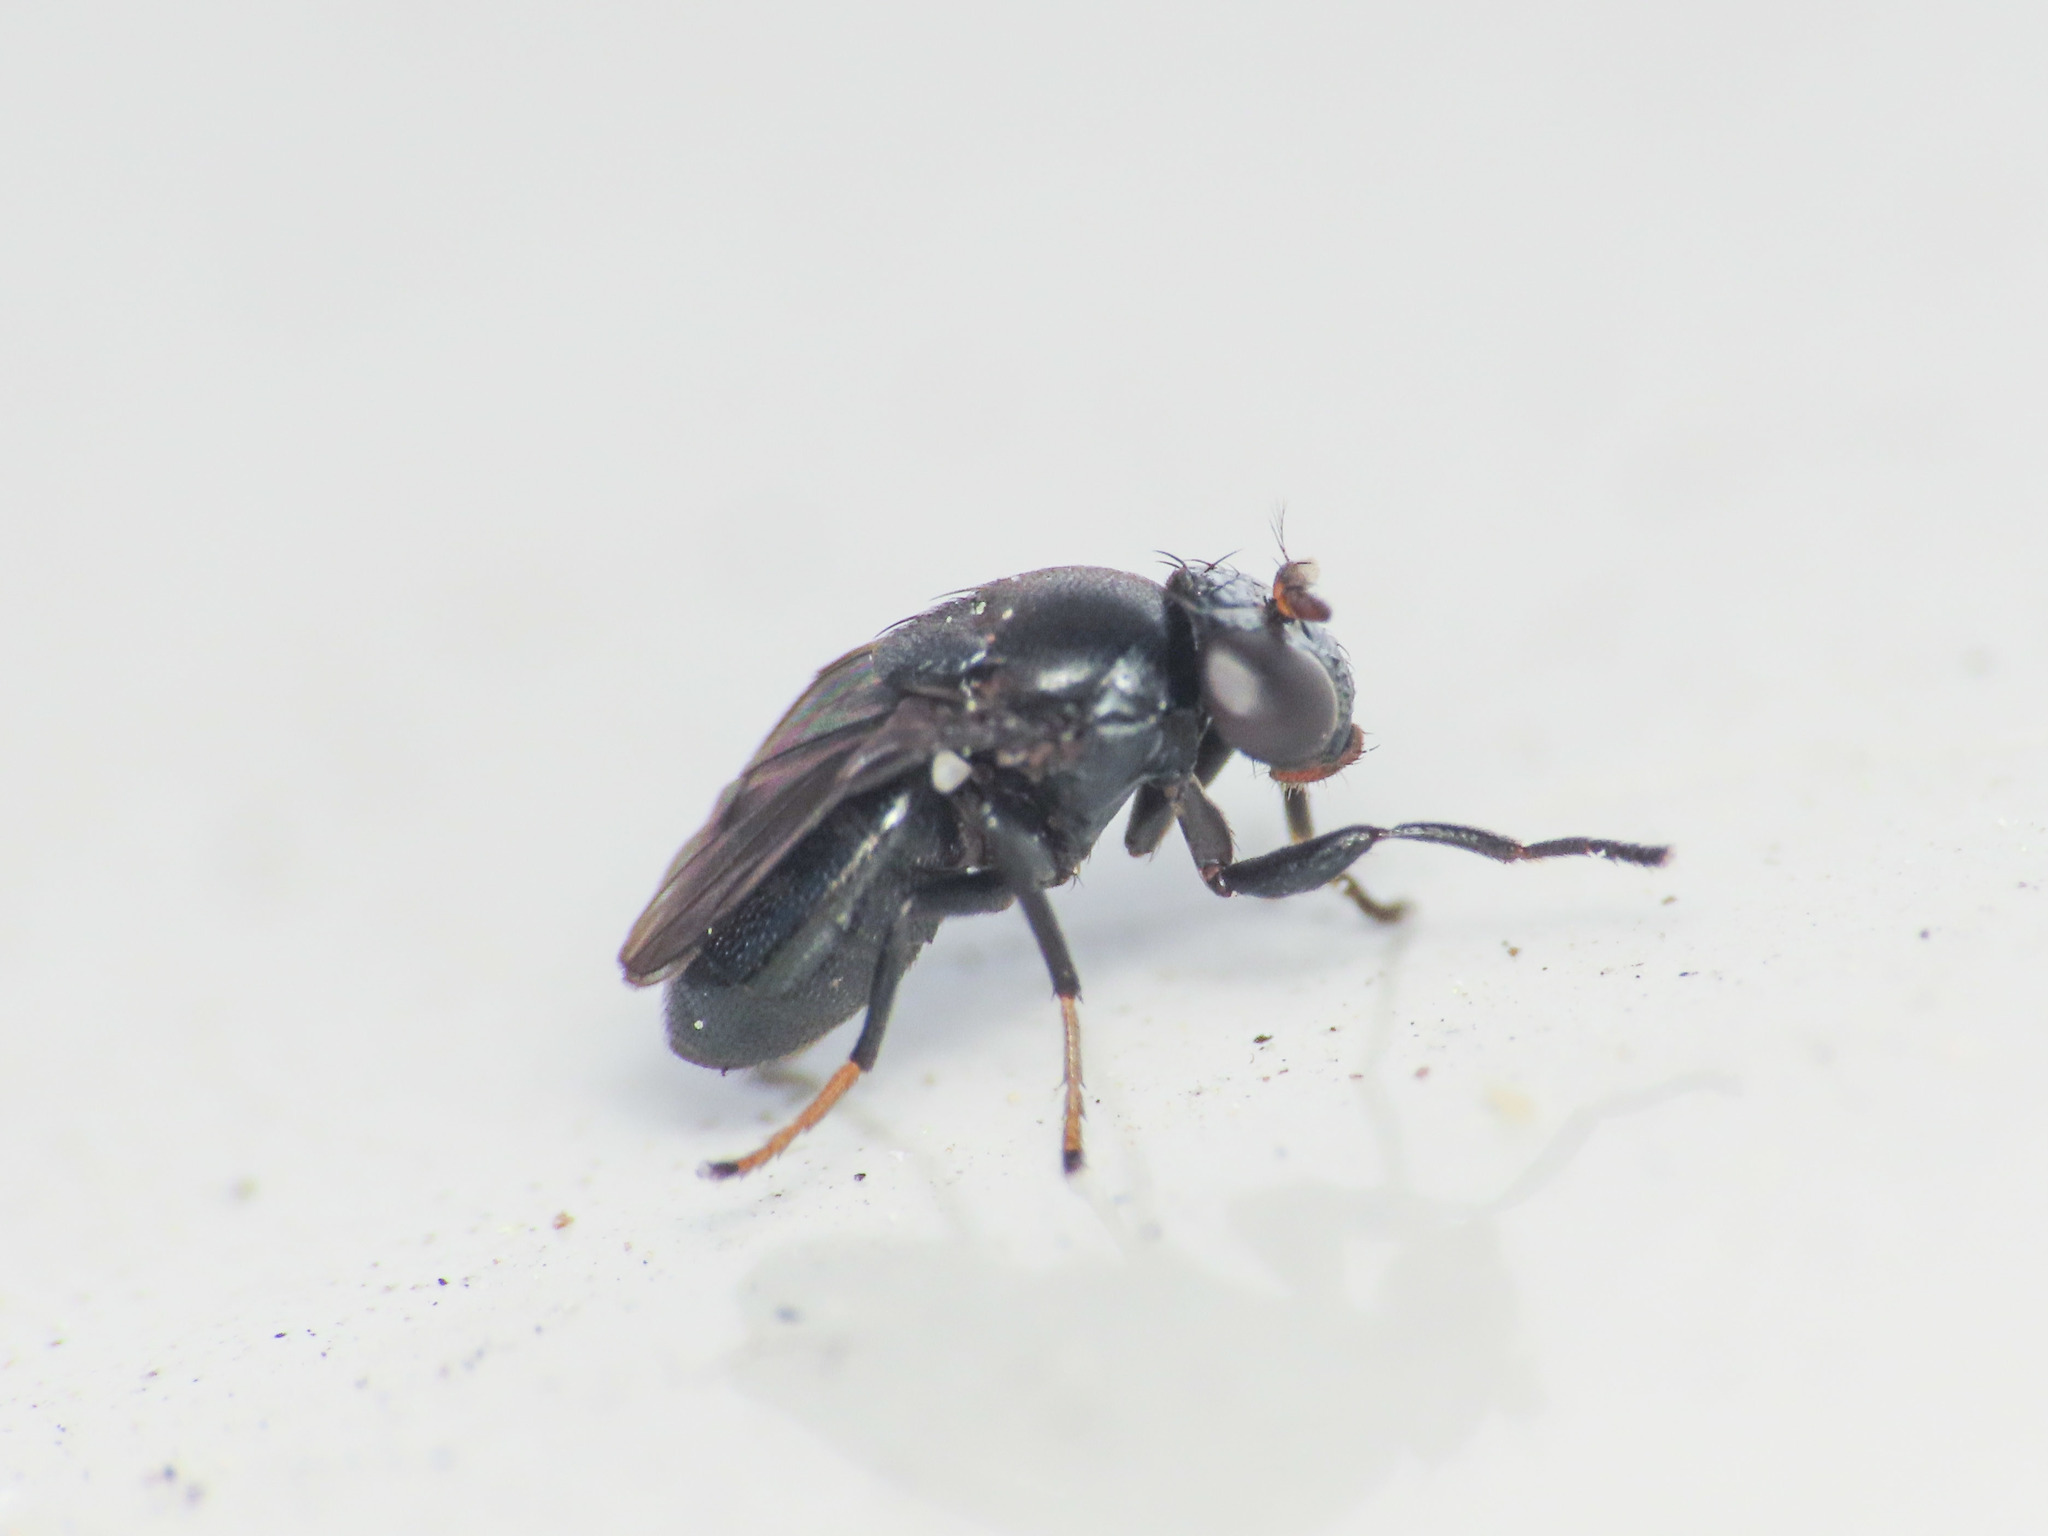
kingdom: Animalia
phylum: Arthropoda
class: Insecta
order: Diptera
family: Ephydridae
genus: Discomyza
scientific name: Discomyza incurva
